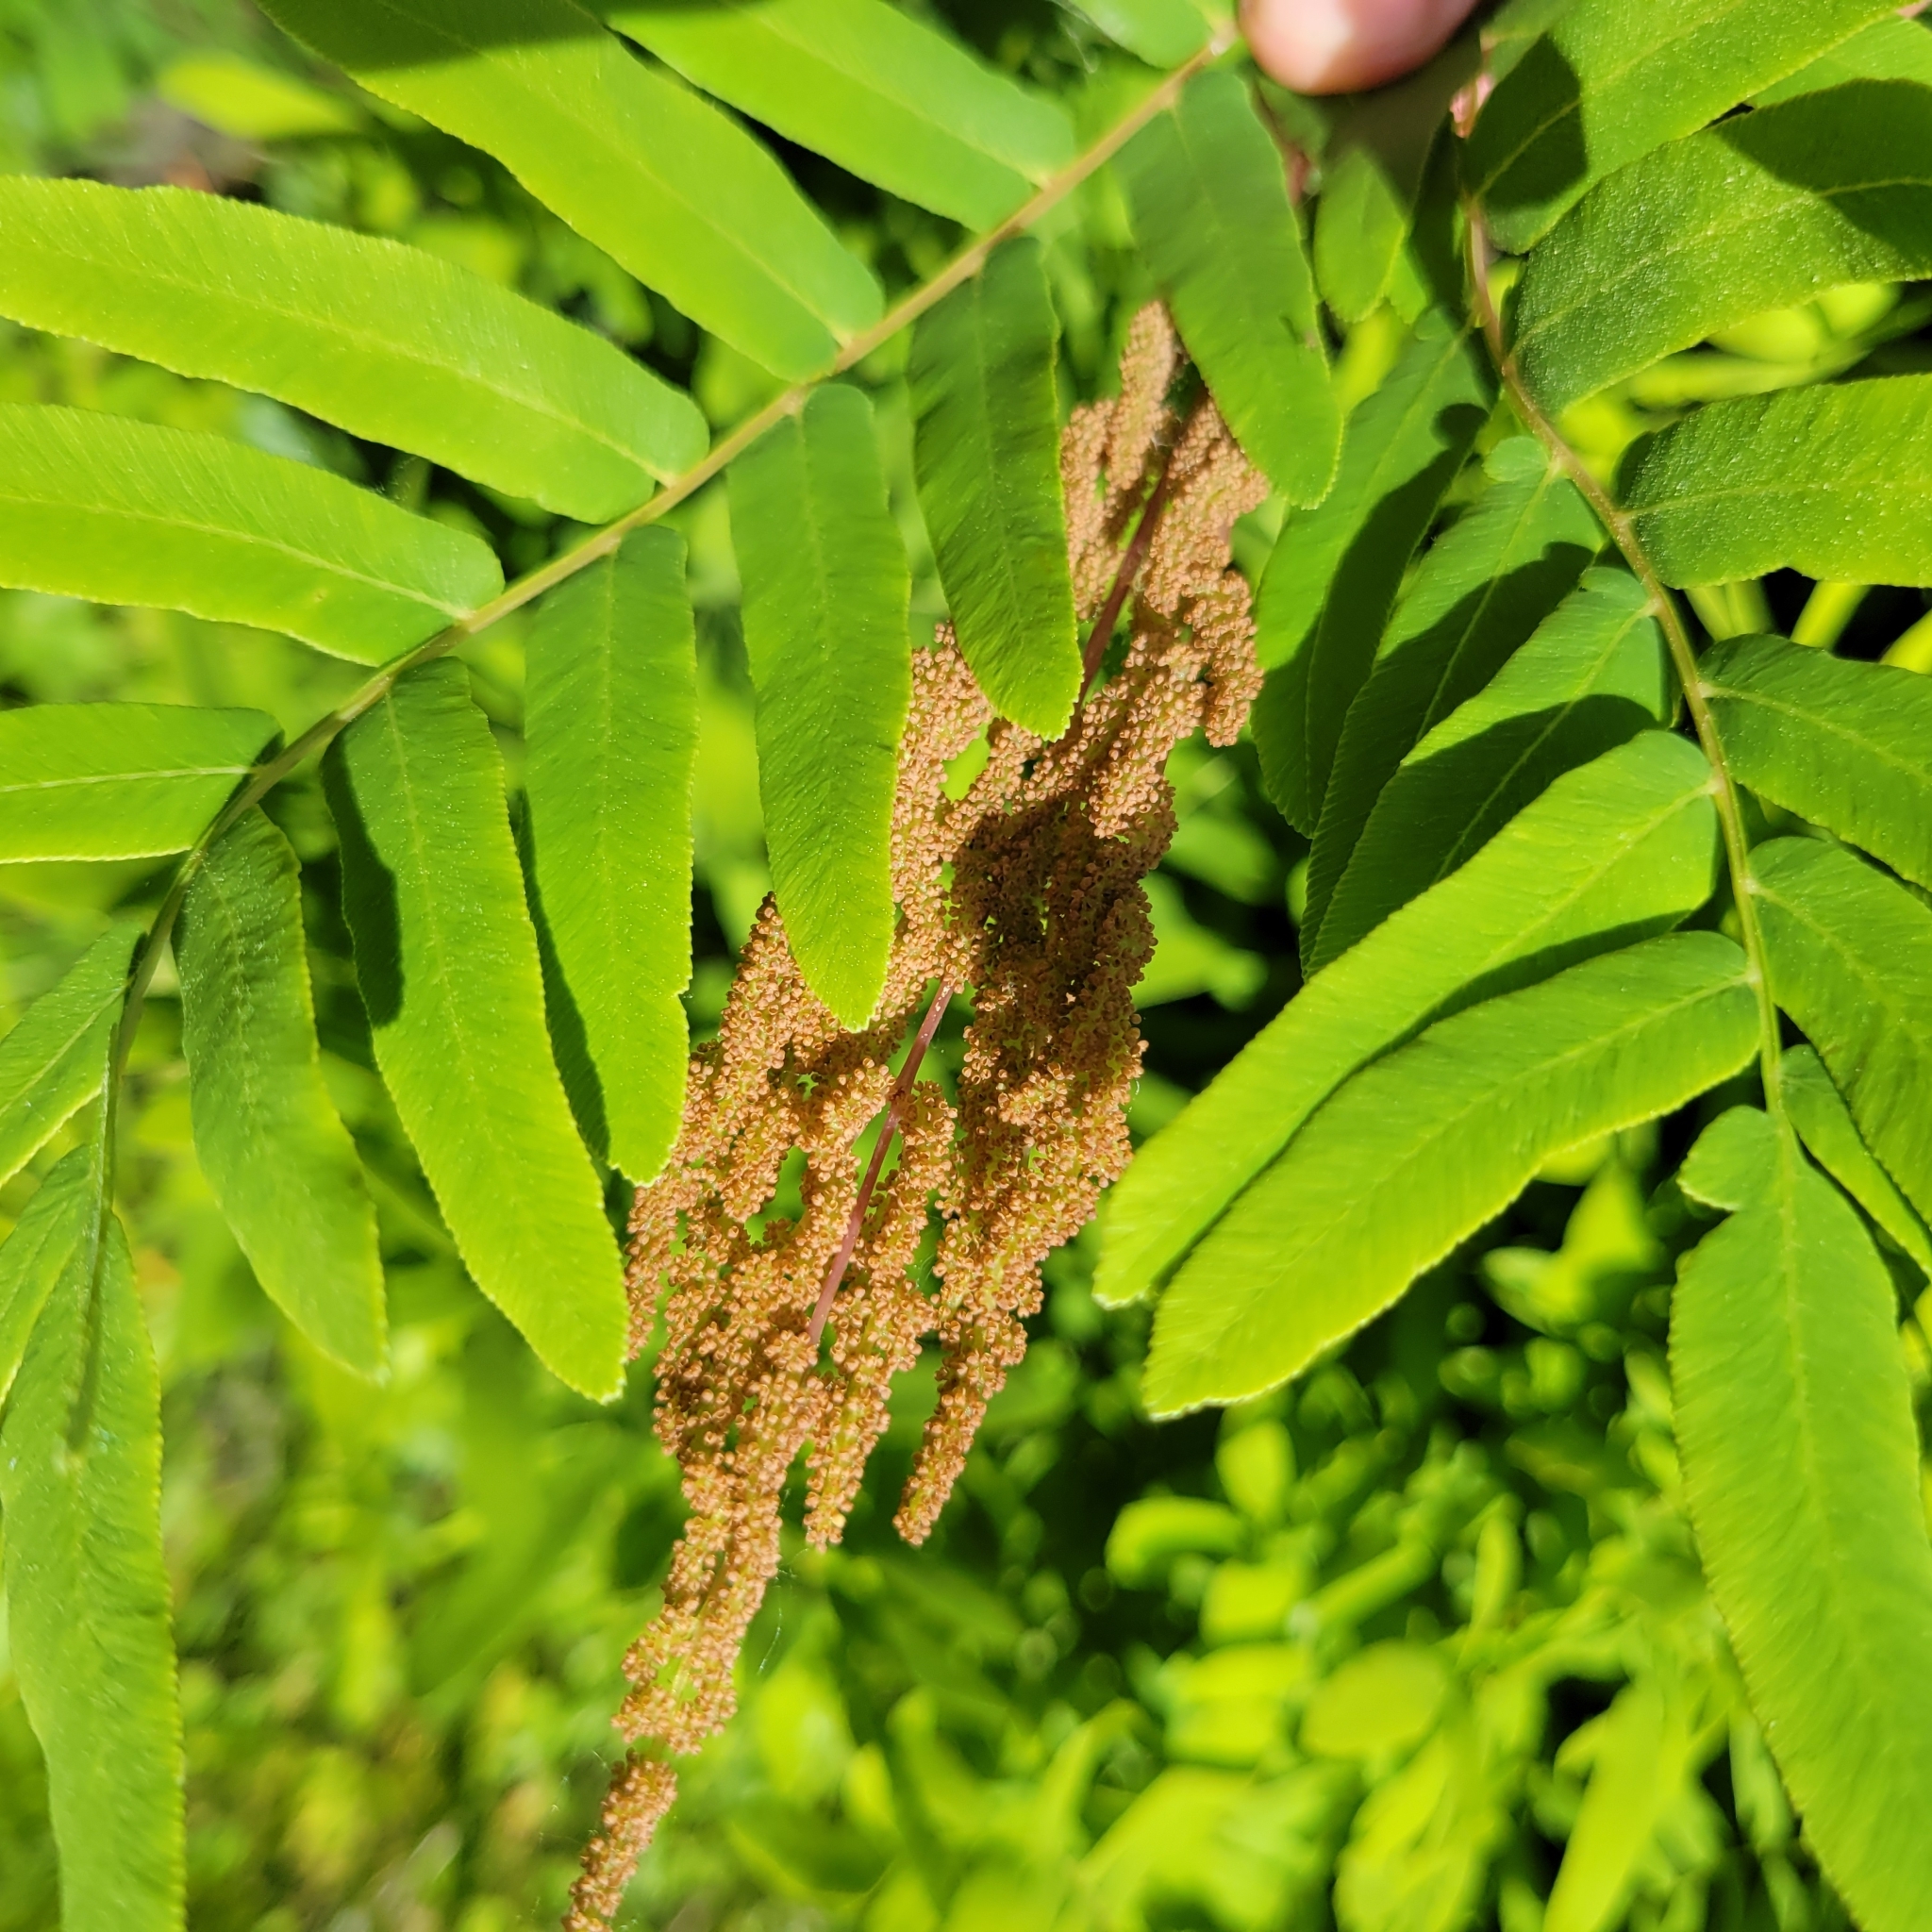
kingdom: Plantae
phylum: Tracheophyta
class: Polypodiopsida
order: Osmundales
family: Osmundaceae
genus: Osmunda
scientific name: Osmunda spectabilis
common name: American royal fern
